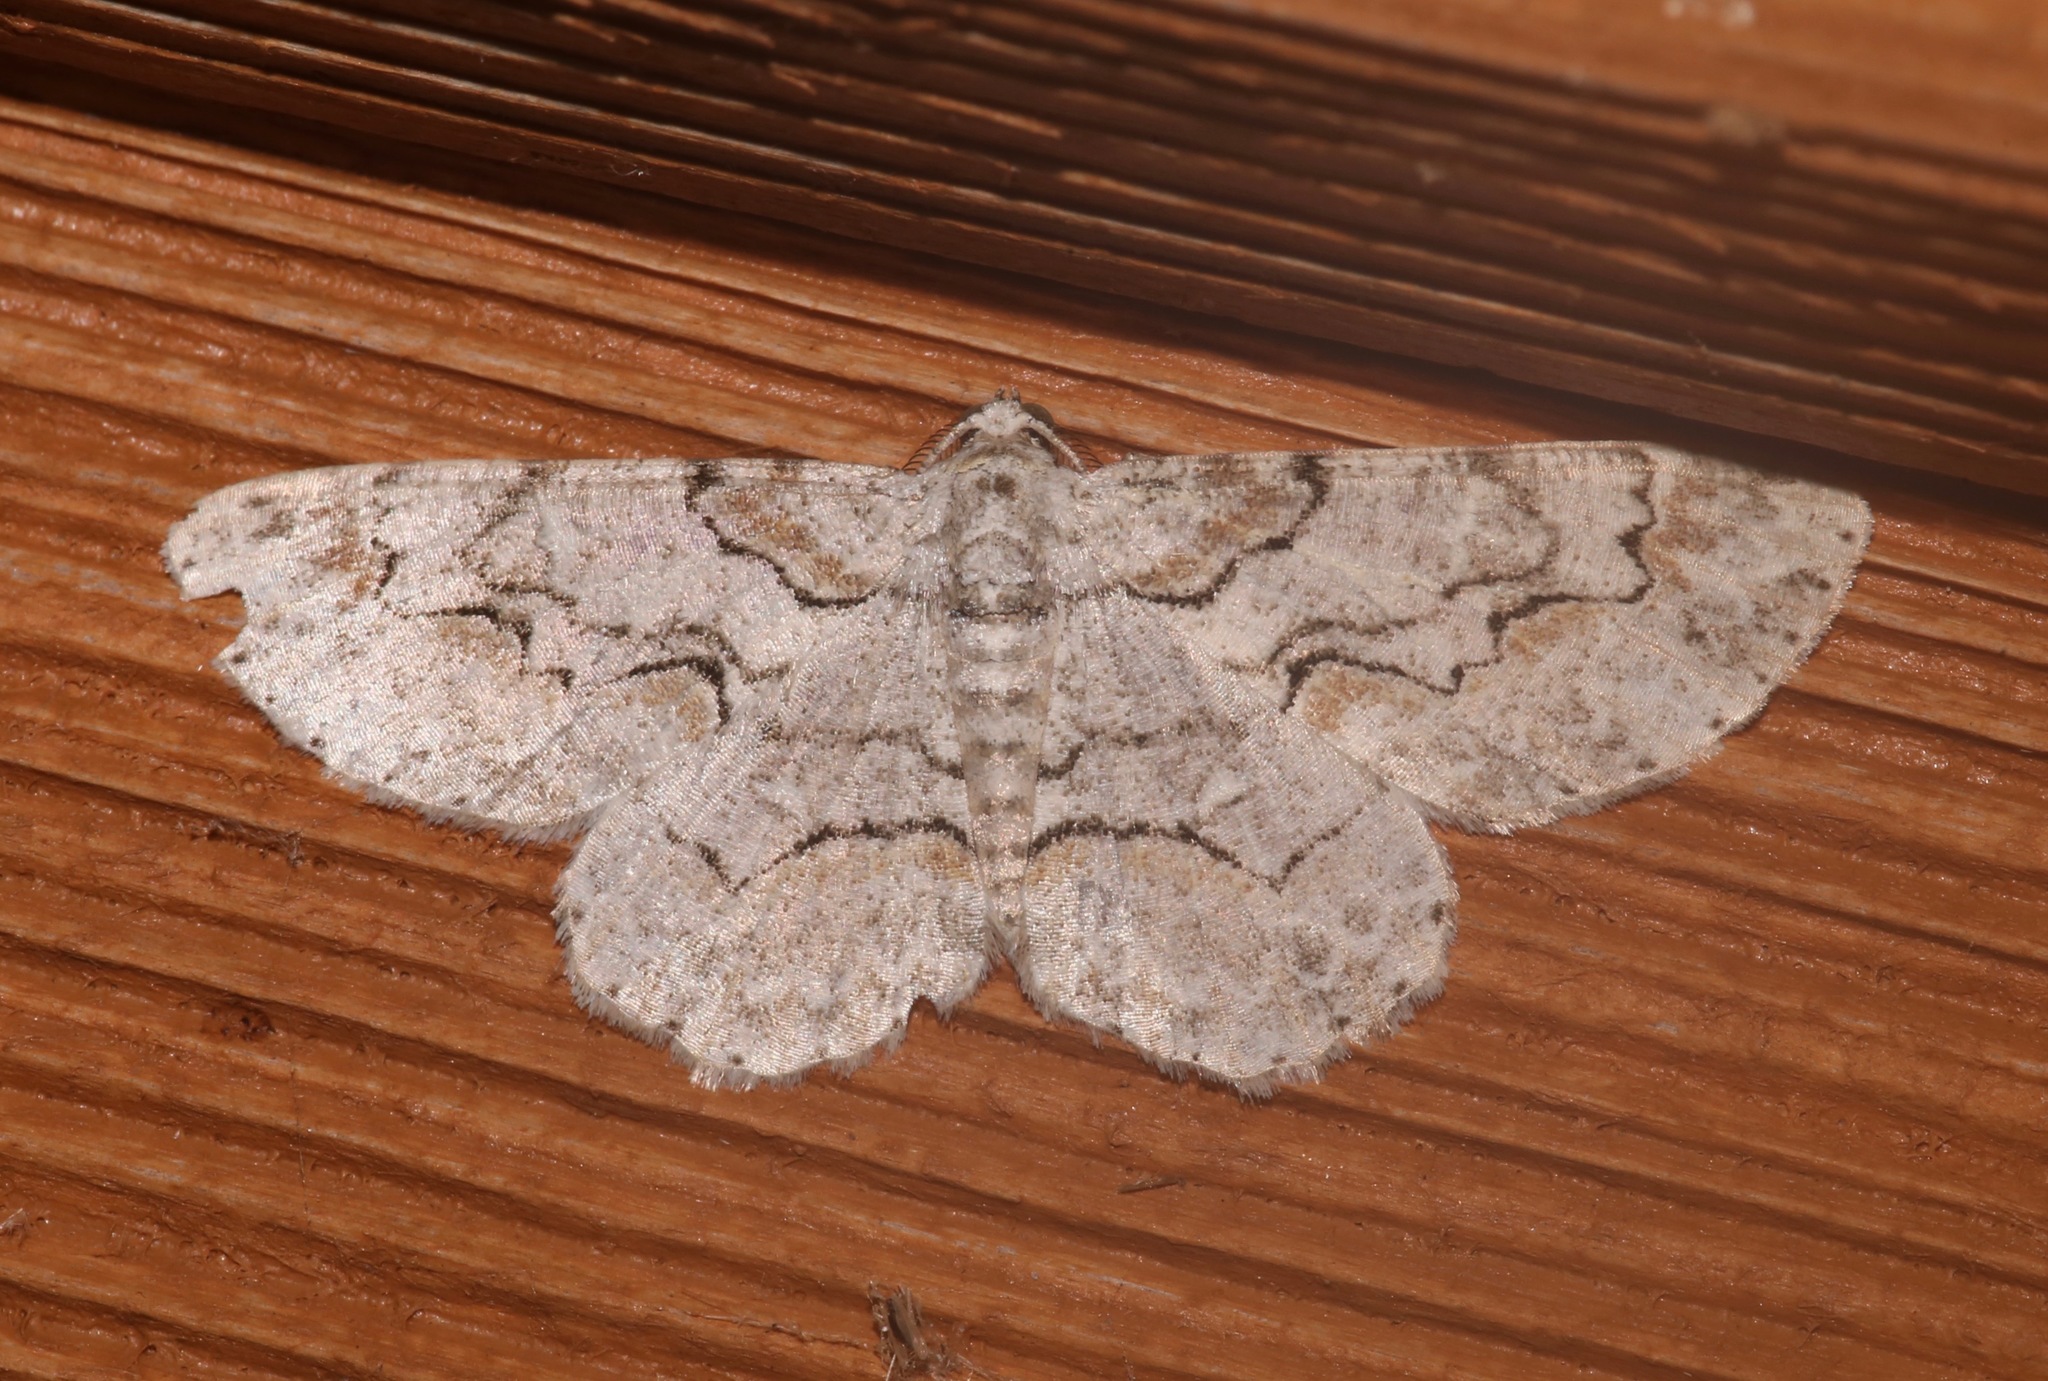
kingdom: Animalia
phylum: Arthropoda
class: Insecta
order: Lepidoptera
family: Geometridae
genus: Iridopsis
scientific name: Iridopsis defectaria
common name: Brown-shaded gray
